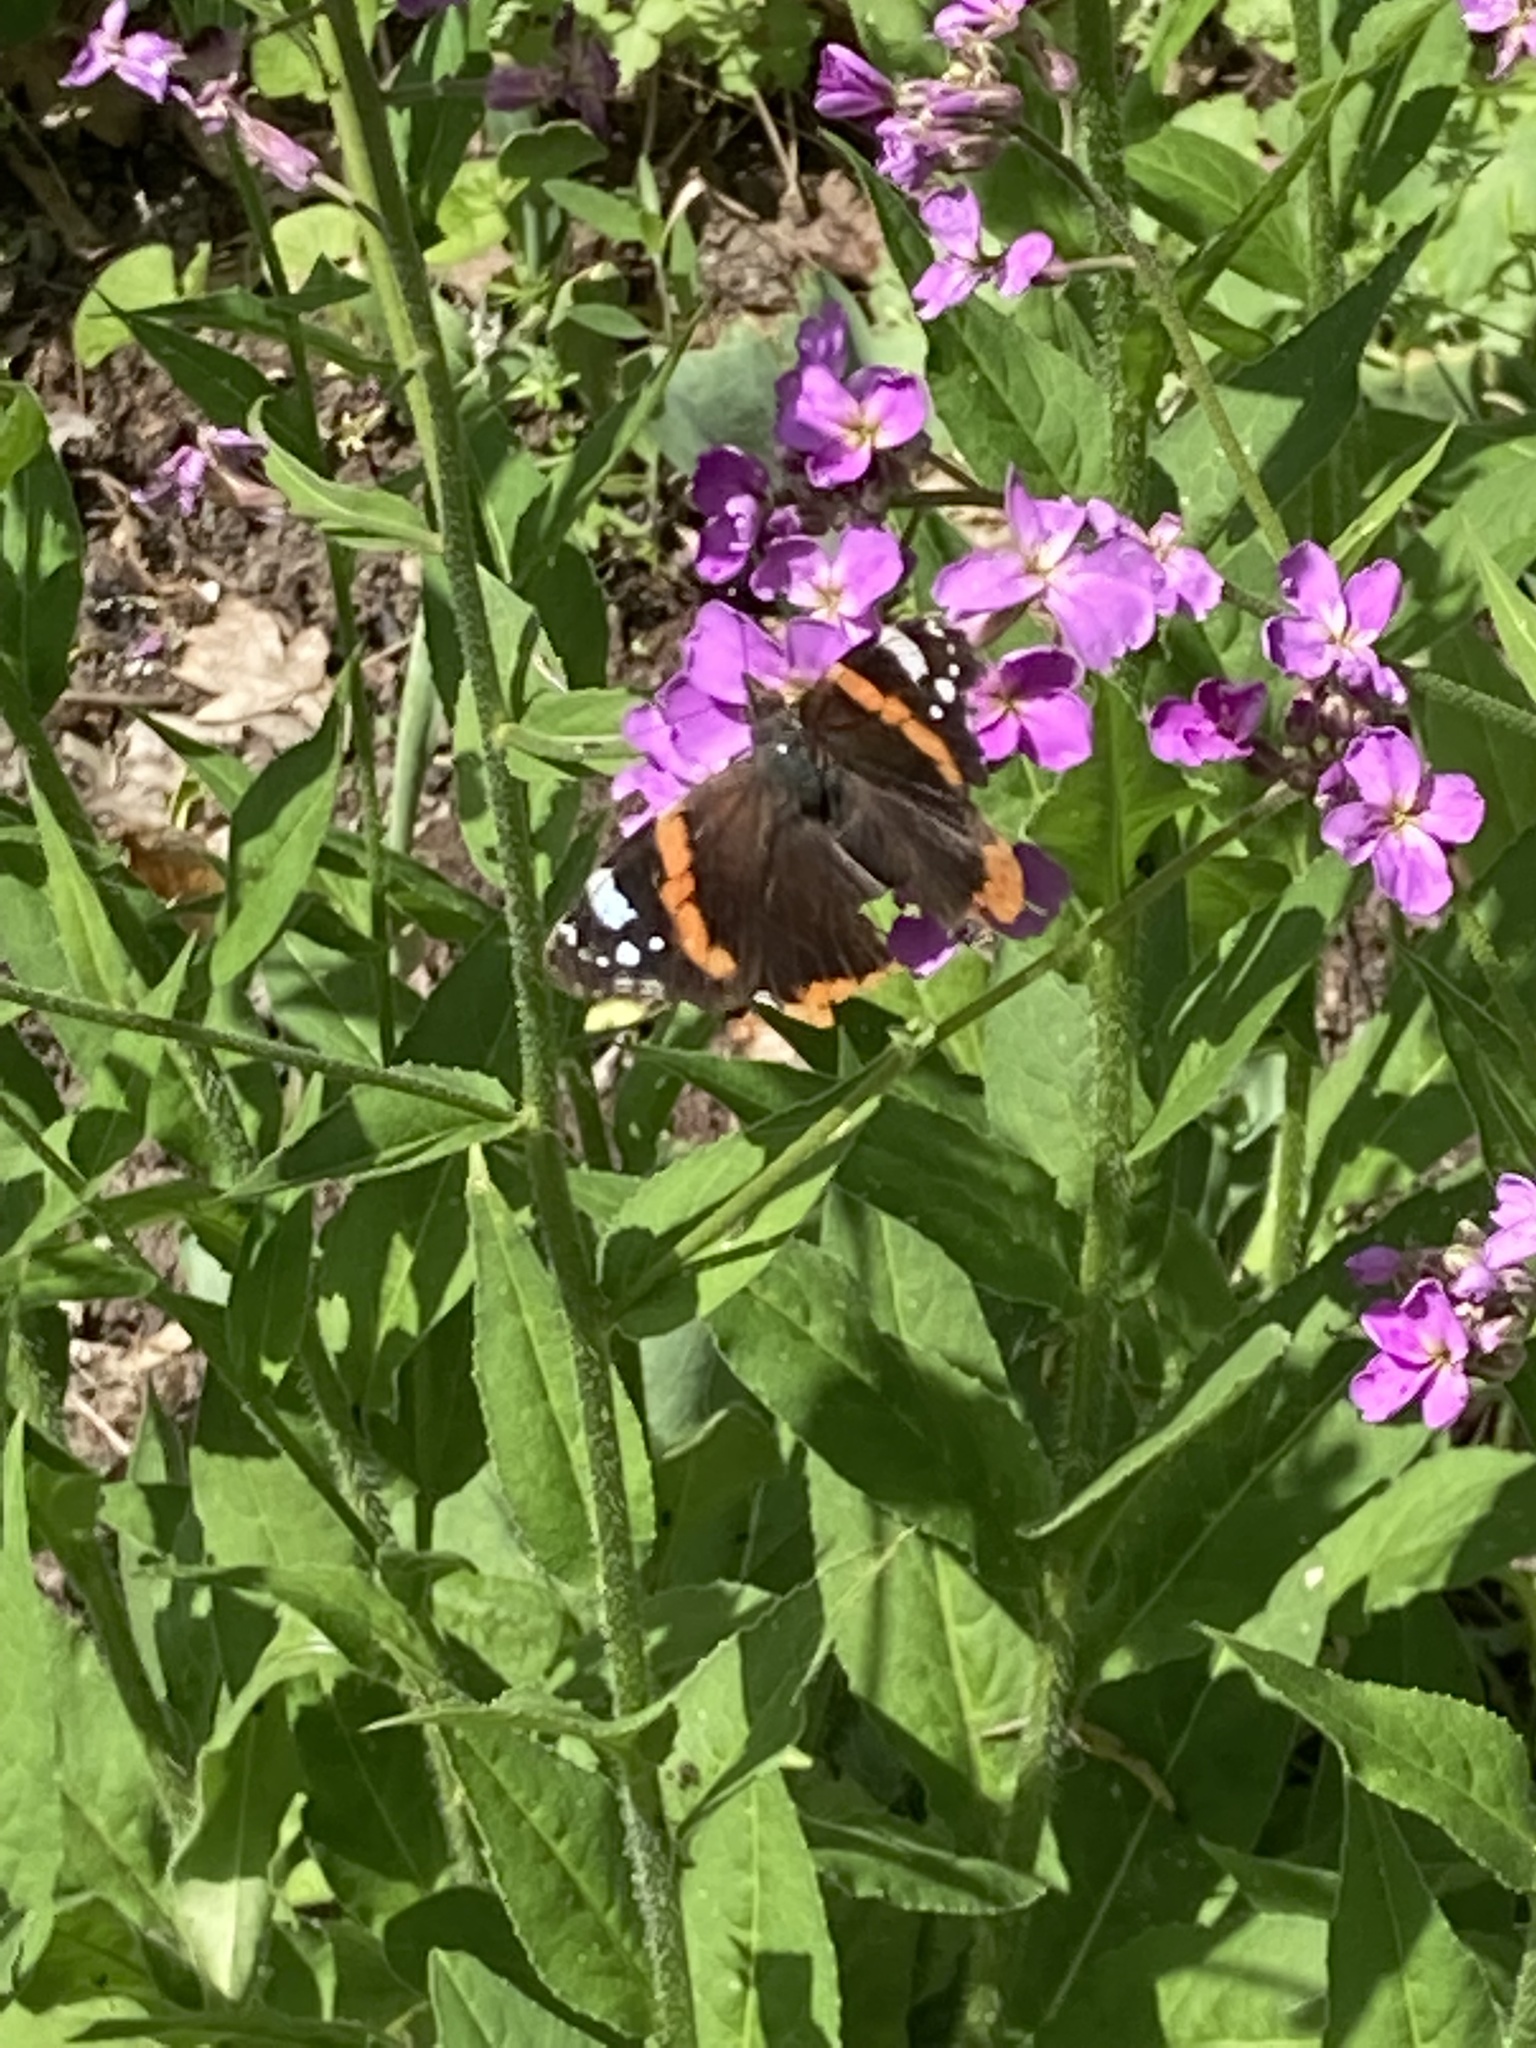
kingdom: Animalia
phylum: Arthropoda
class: Insecta
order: Lepidoptera
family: Nymphalidae
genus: Vanessa
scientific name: Vanessa atalanta
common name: Red admiral
